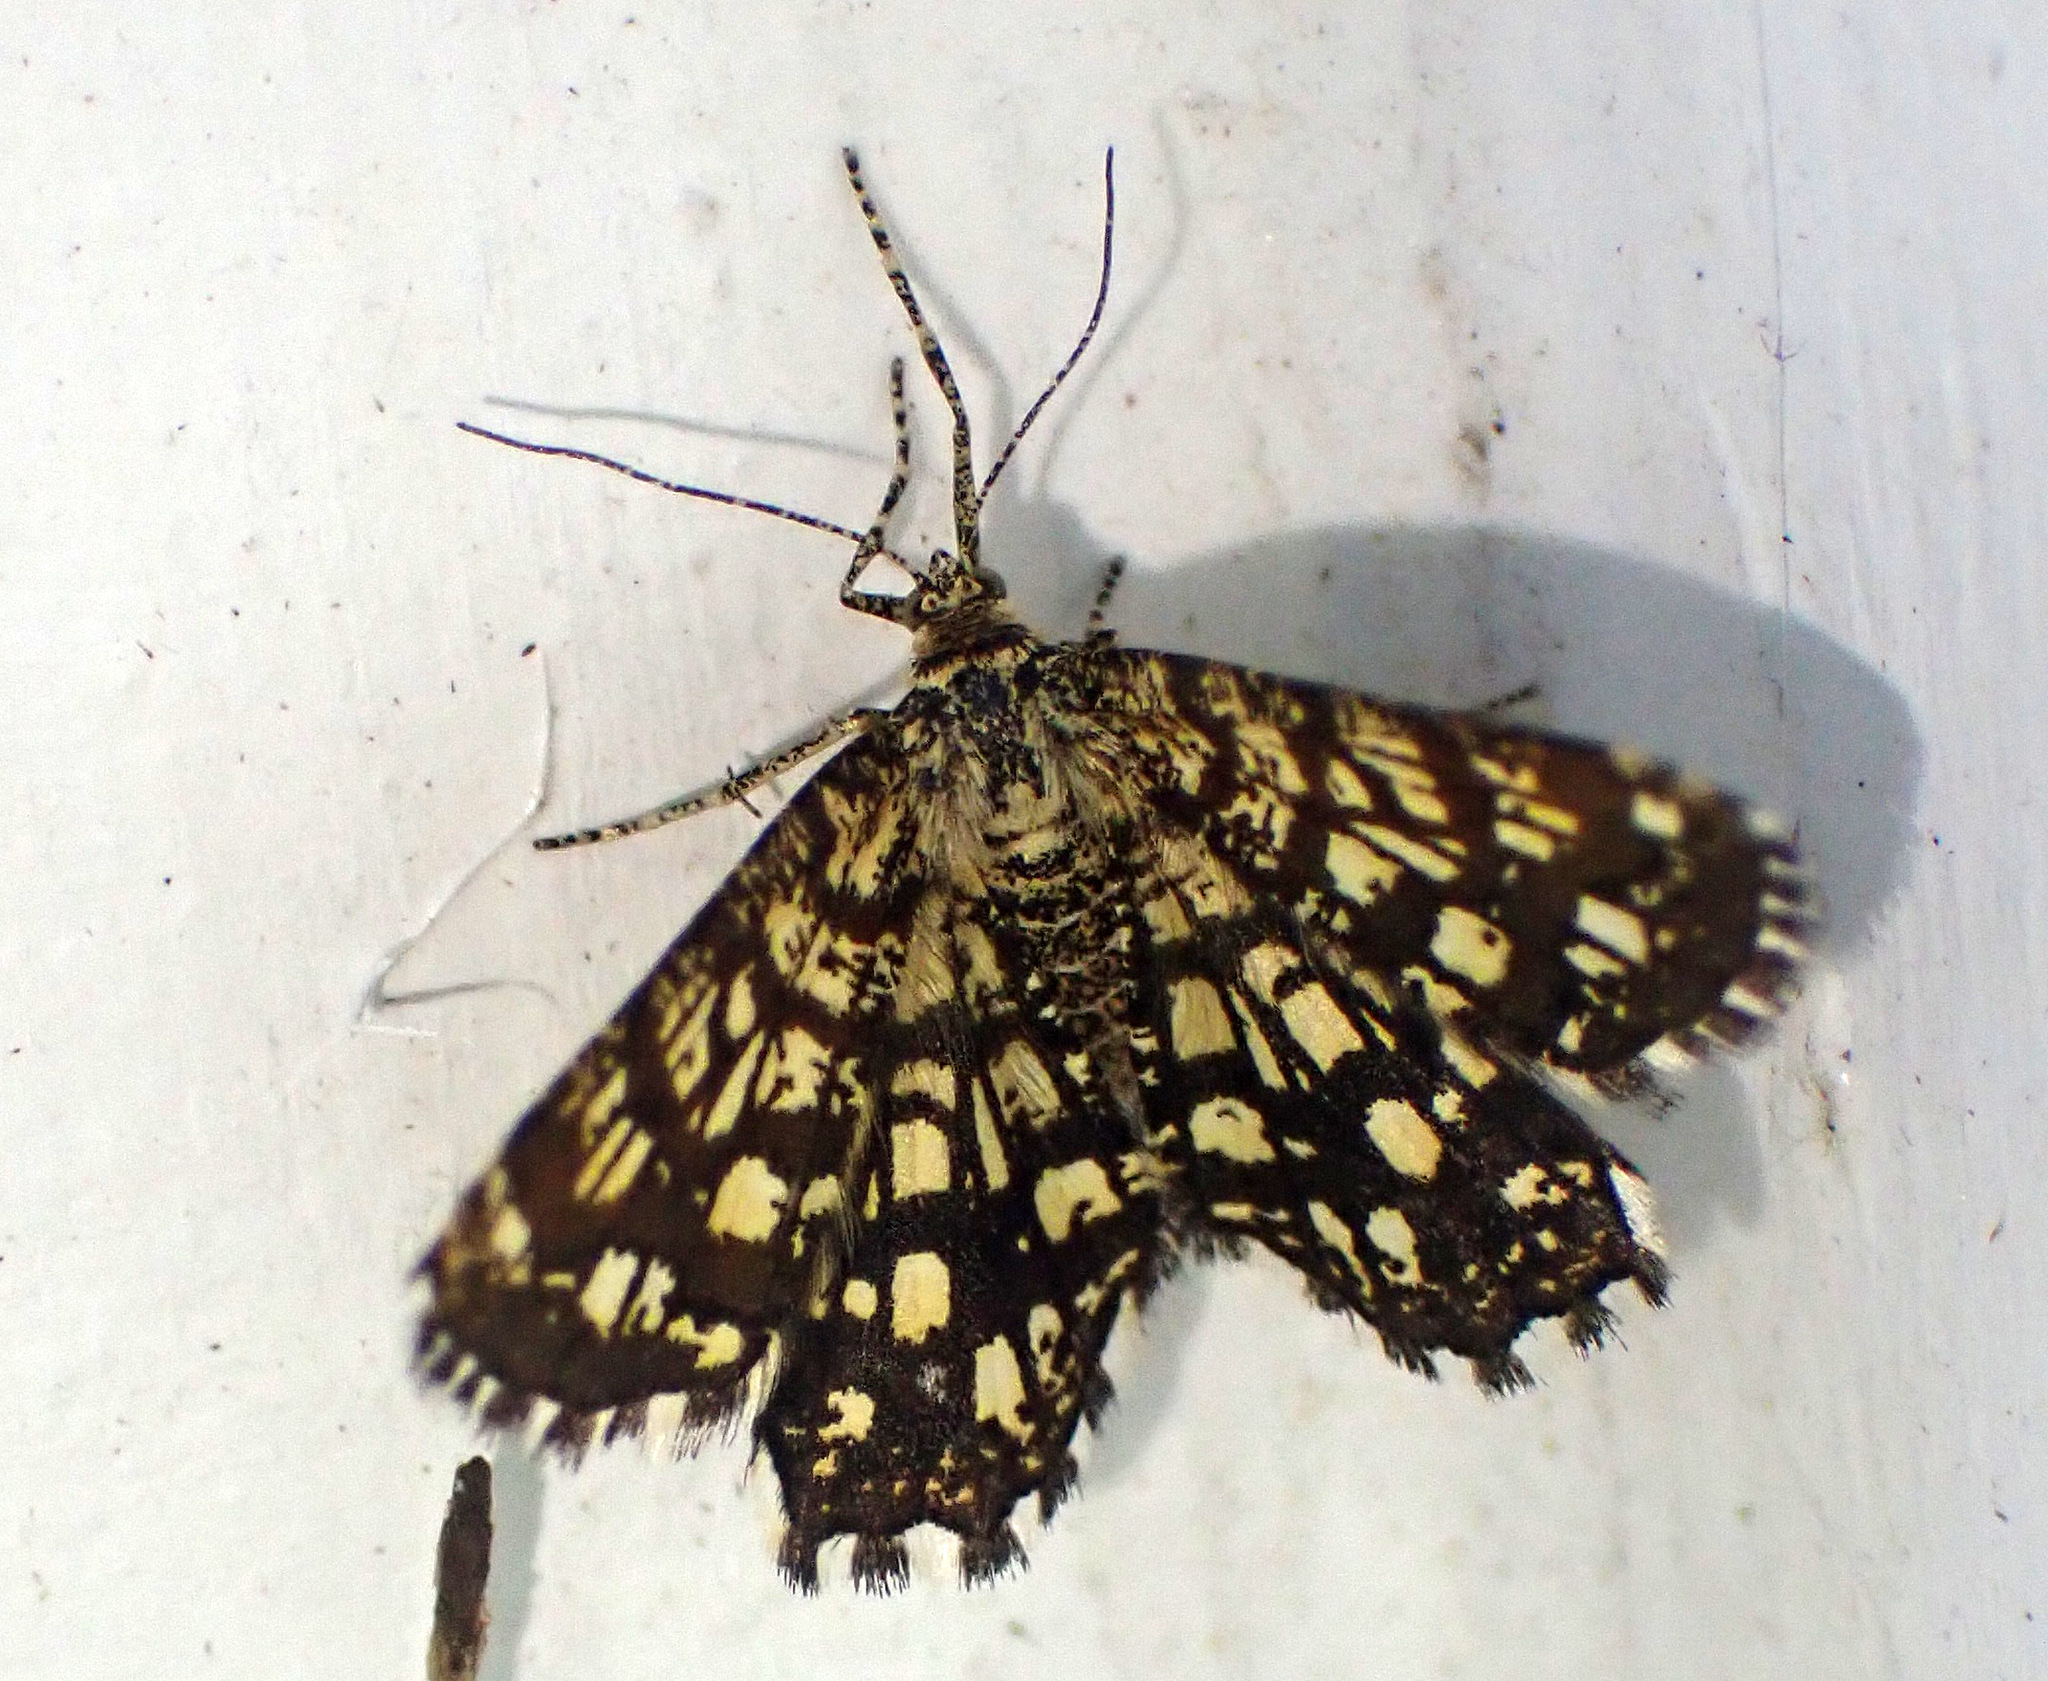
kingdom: Animalia
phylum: Arthropoda
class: Insecta
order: Lepidoptera
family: Geometridae
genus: Chiasmia
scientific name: Chiasmia clathrata
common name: Latticed heath
